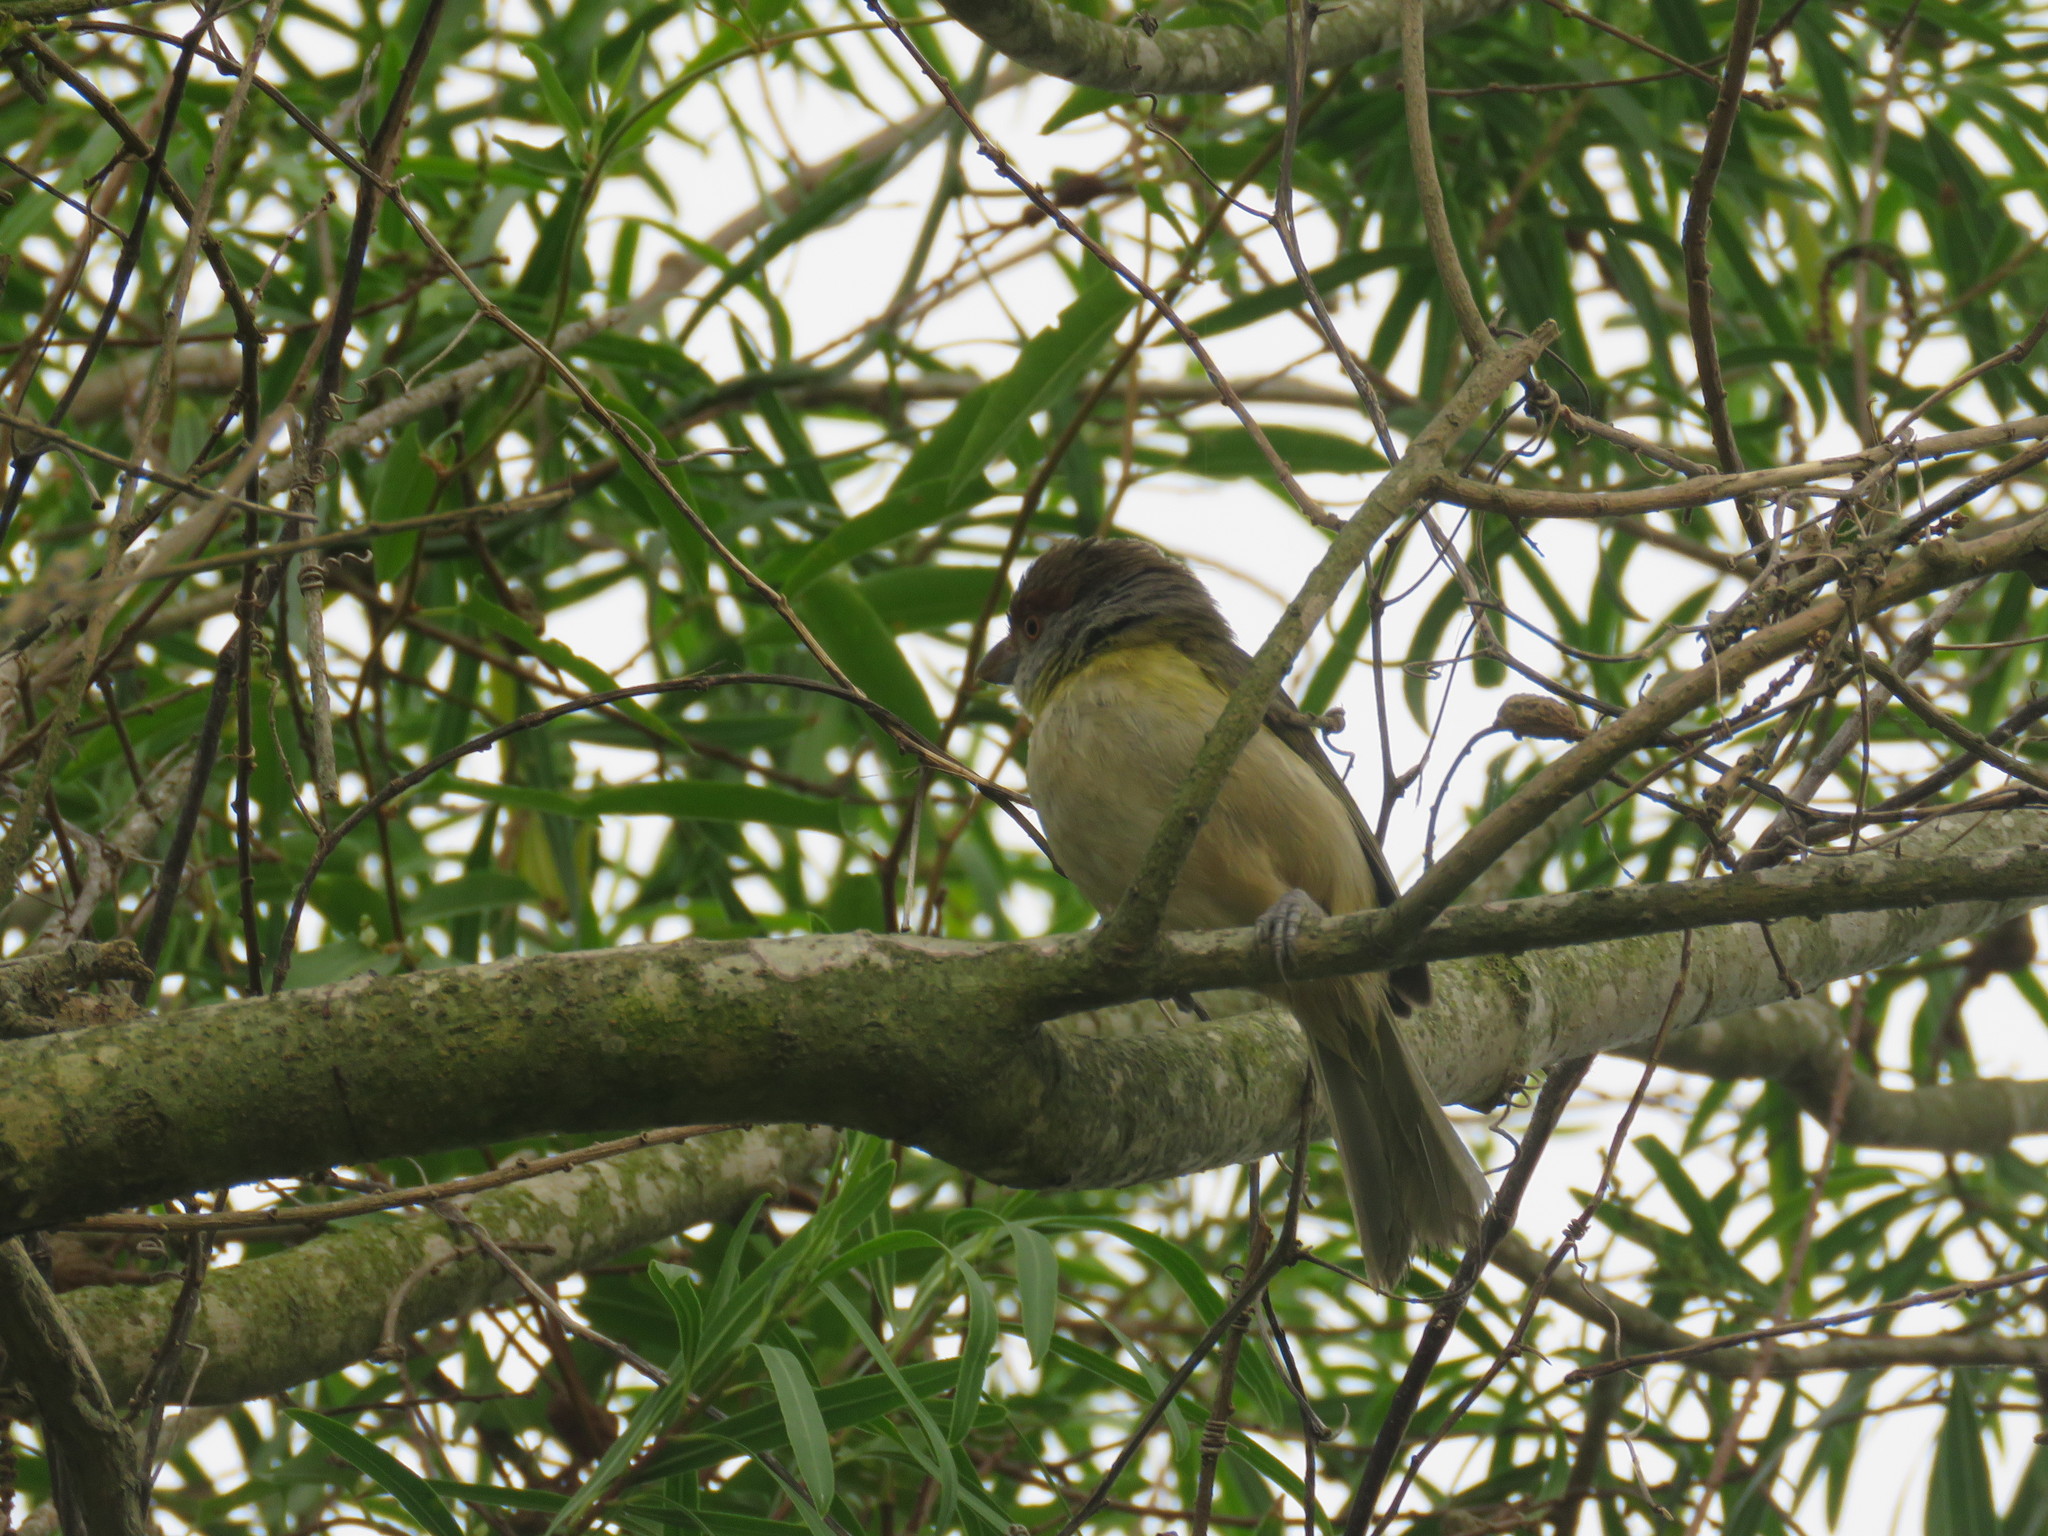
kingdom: Animalia
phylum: Chordata
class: Aves
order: Passeriformes
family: Vireonidae
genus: Cyclarhis
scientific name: Cyclarhis gujanensis
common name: Rufous-browed peppershrike
